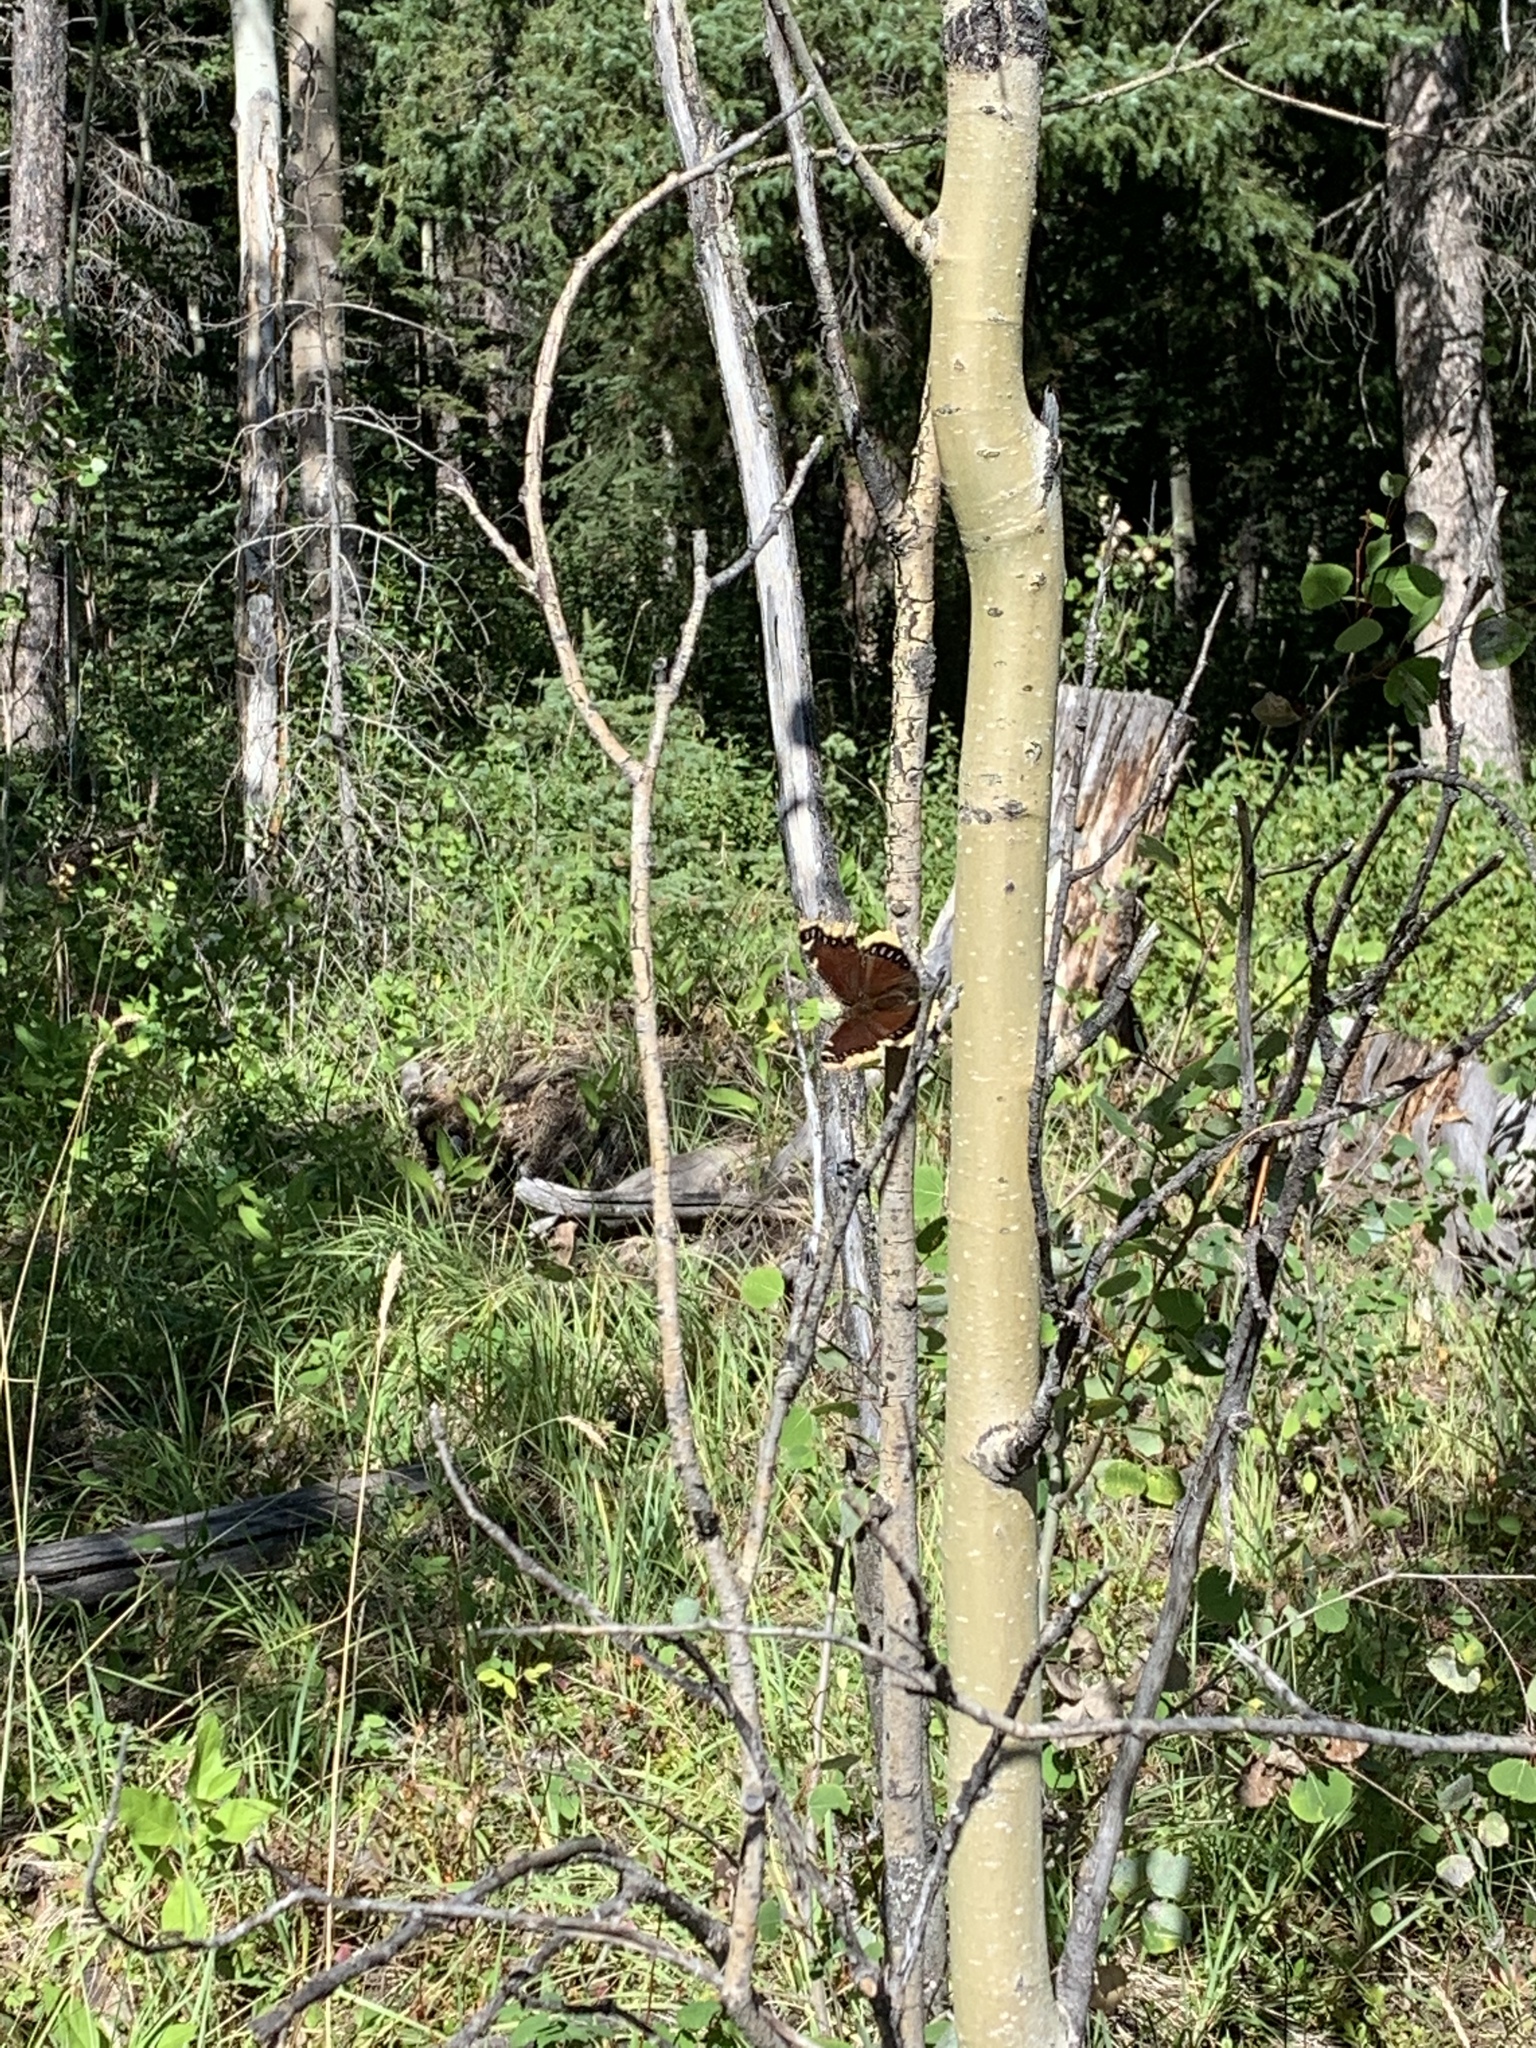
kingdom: Animalia
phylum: Arthropoda
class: Insecta
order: Lepidoptera
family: Nymphalidae
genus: Nymphalis
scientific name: Nymphalis antiopa
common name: Camberwell beauty
